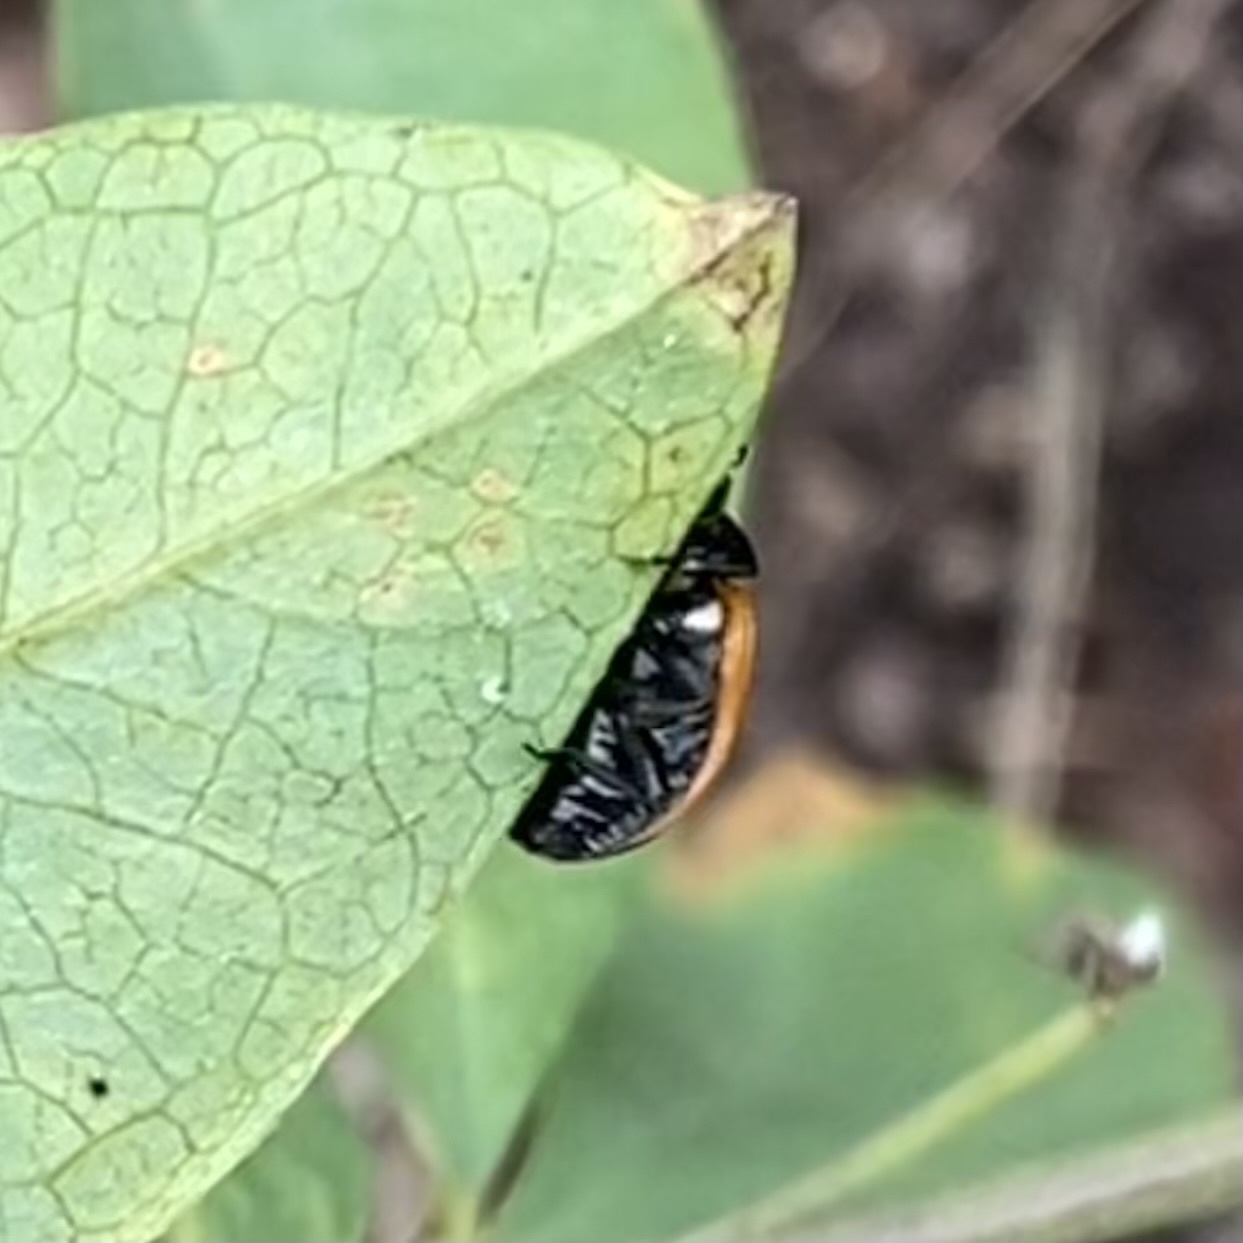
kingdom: Animalia
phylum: Arthropoda
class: Insecta
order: Coleoptera
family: Coccinellidae
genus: Coccinella
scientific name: Coccinella septempunctata
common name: Sevenspotted lady beetle
